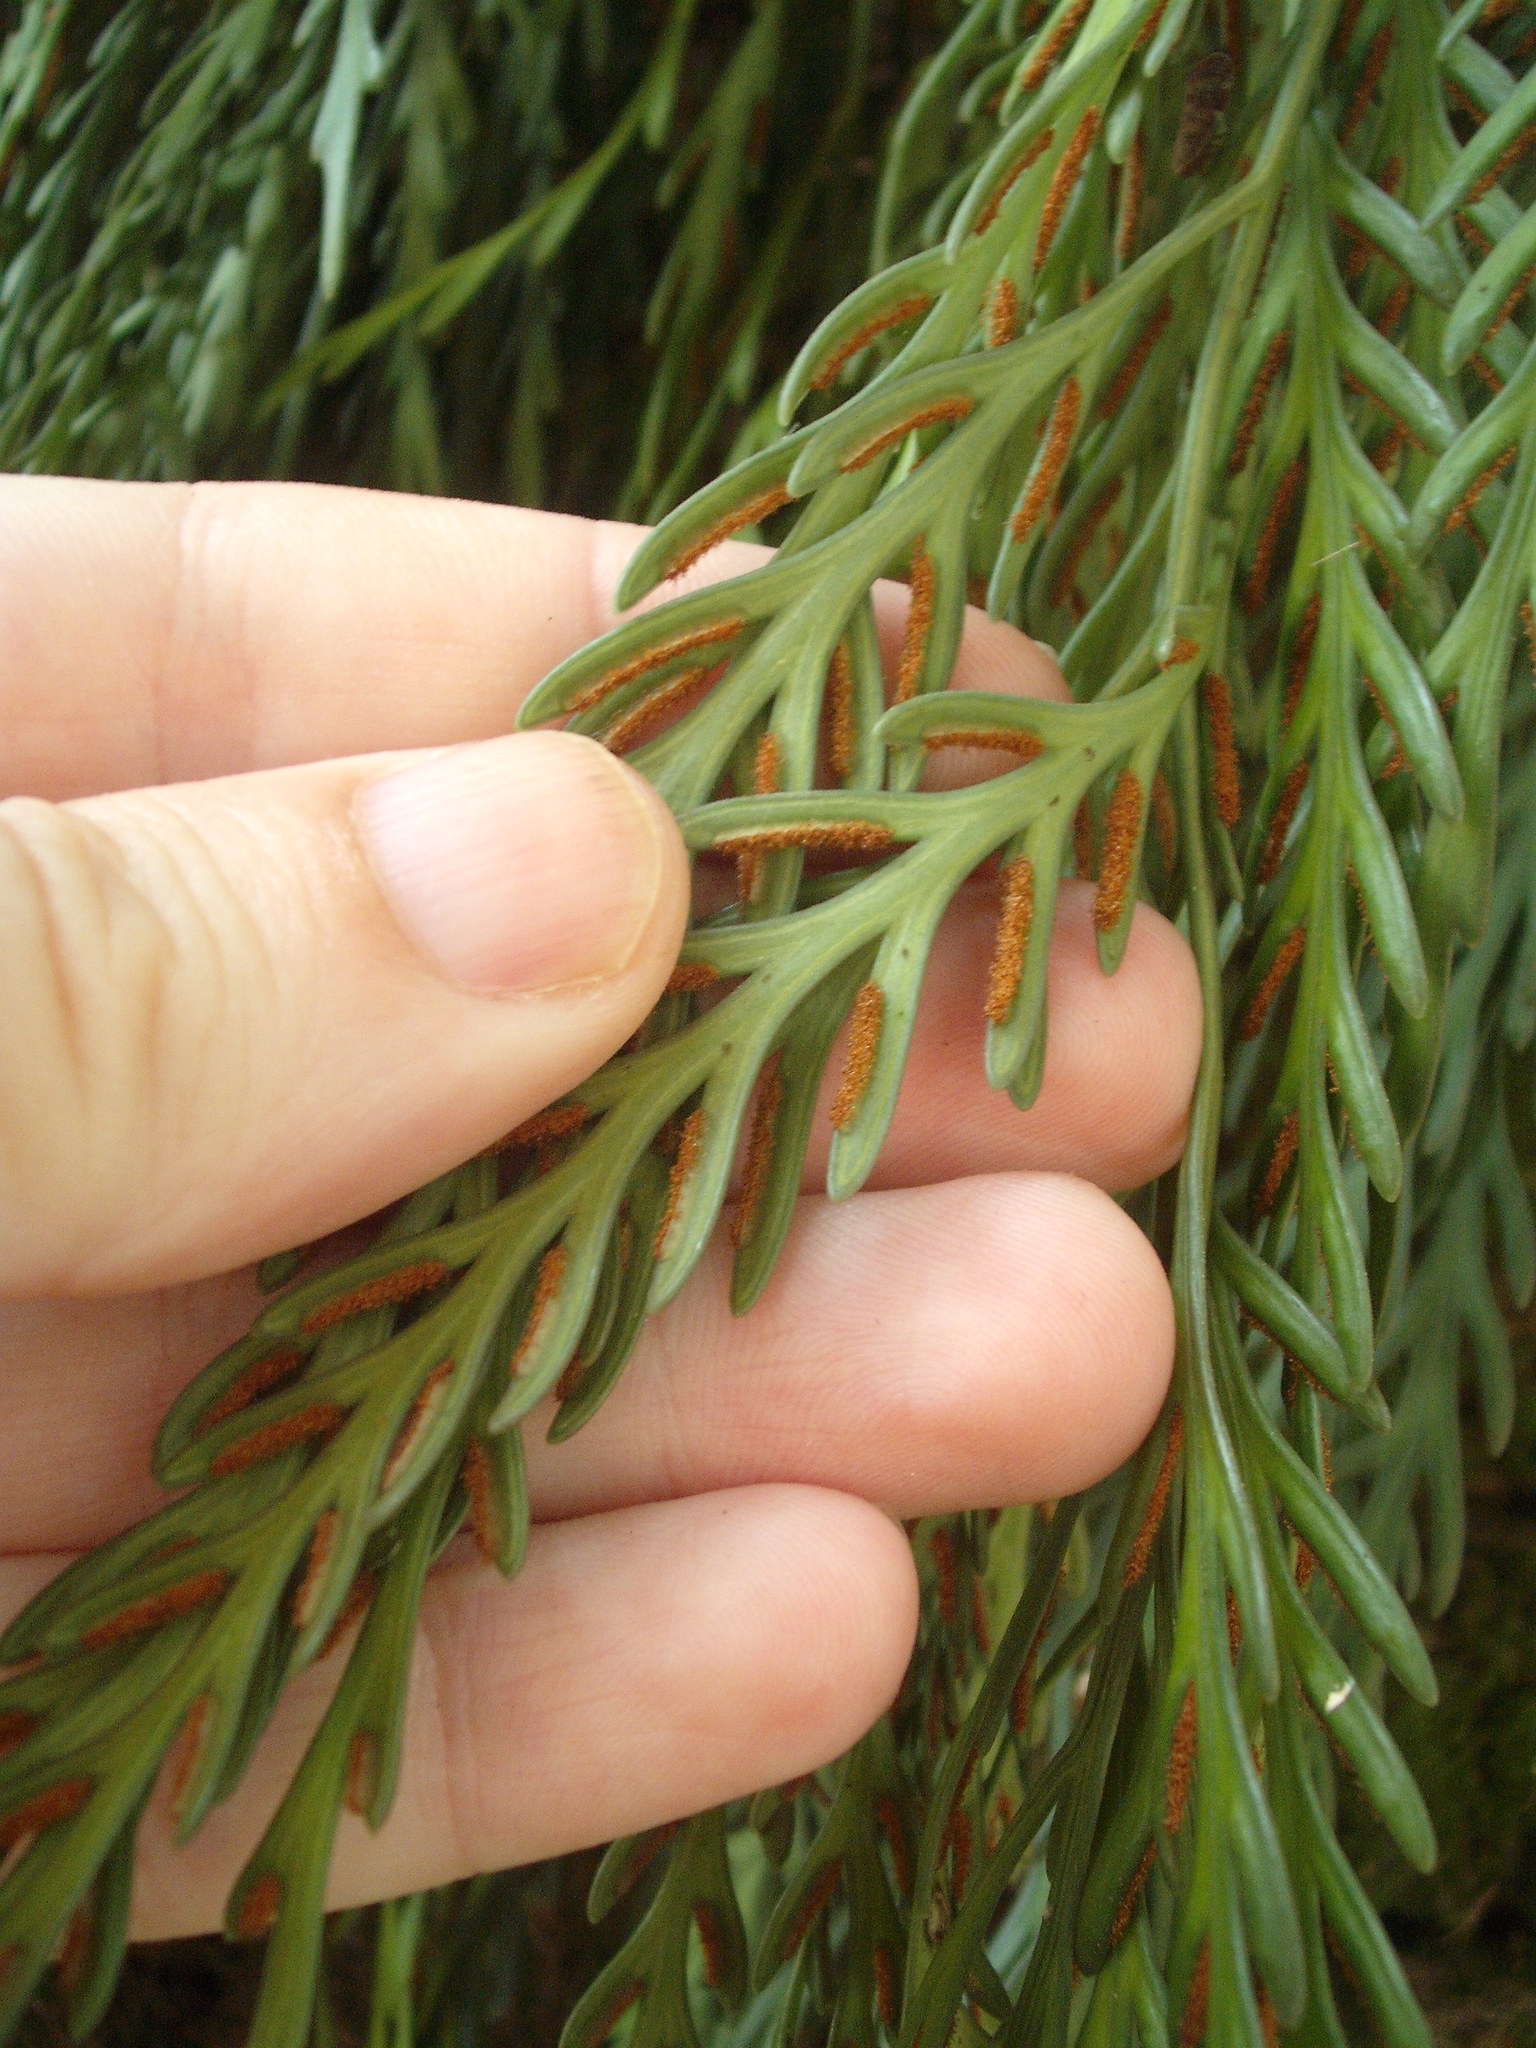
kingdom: Plantae
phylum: Tracheophyta
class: Polypodiopsida
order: Polypodiales
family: Aspleniaceae
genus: Asplenium
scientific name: Asplenium flaccidum
